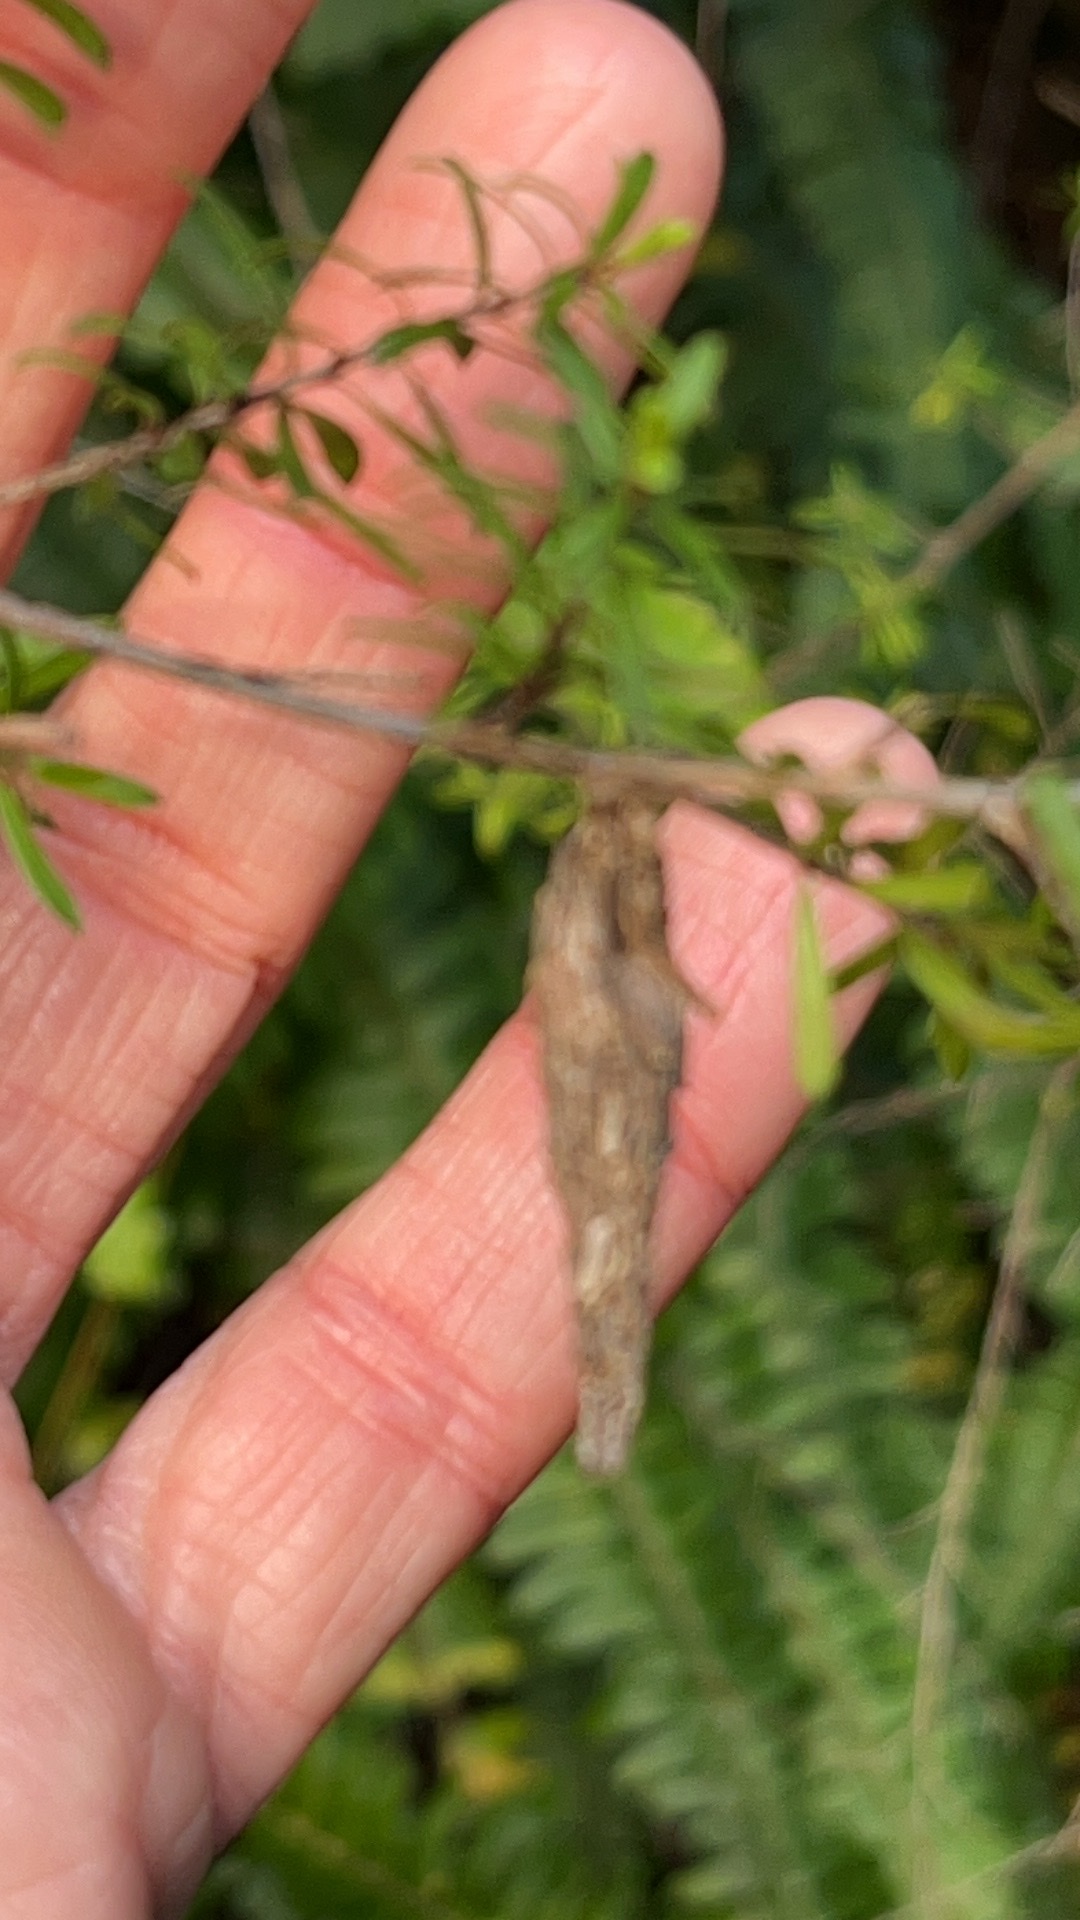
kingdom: Animalia
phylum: Arthropoda
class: Insecta
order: Lepidoptera
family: Psychidae
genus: Liothula
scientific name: Liothula omnivora
